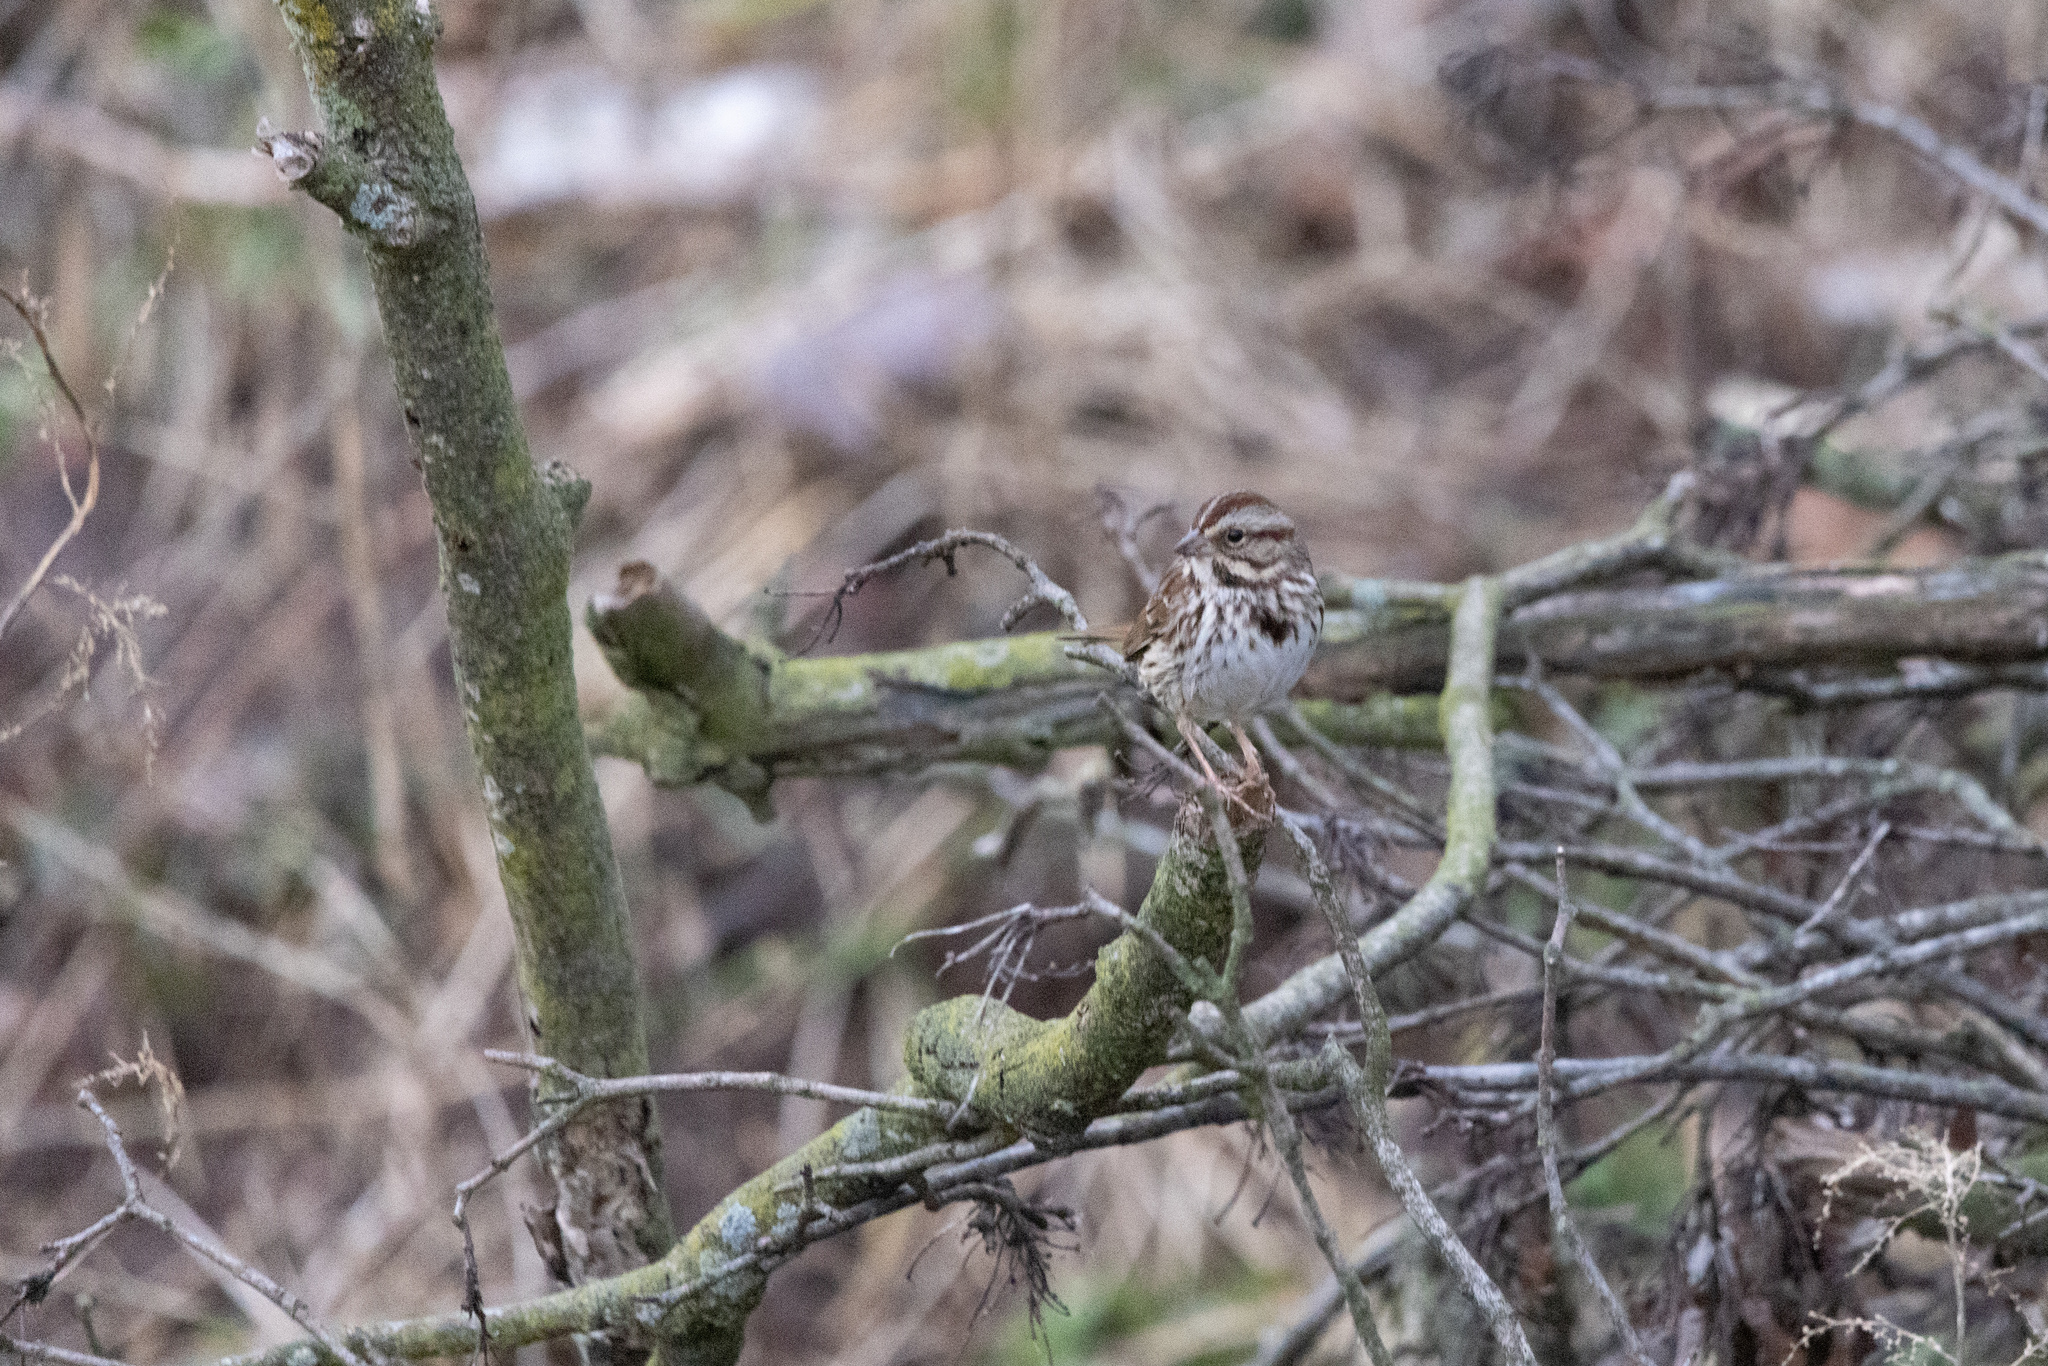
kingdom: Animalia
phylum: Chordata
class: Aves
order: Passeriformes
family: Passerellidae
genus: Melospiza
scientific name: Melospiza melodia
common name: Song sparrow
